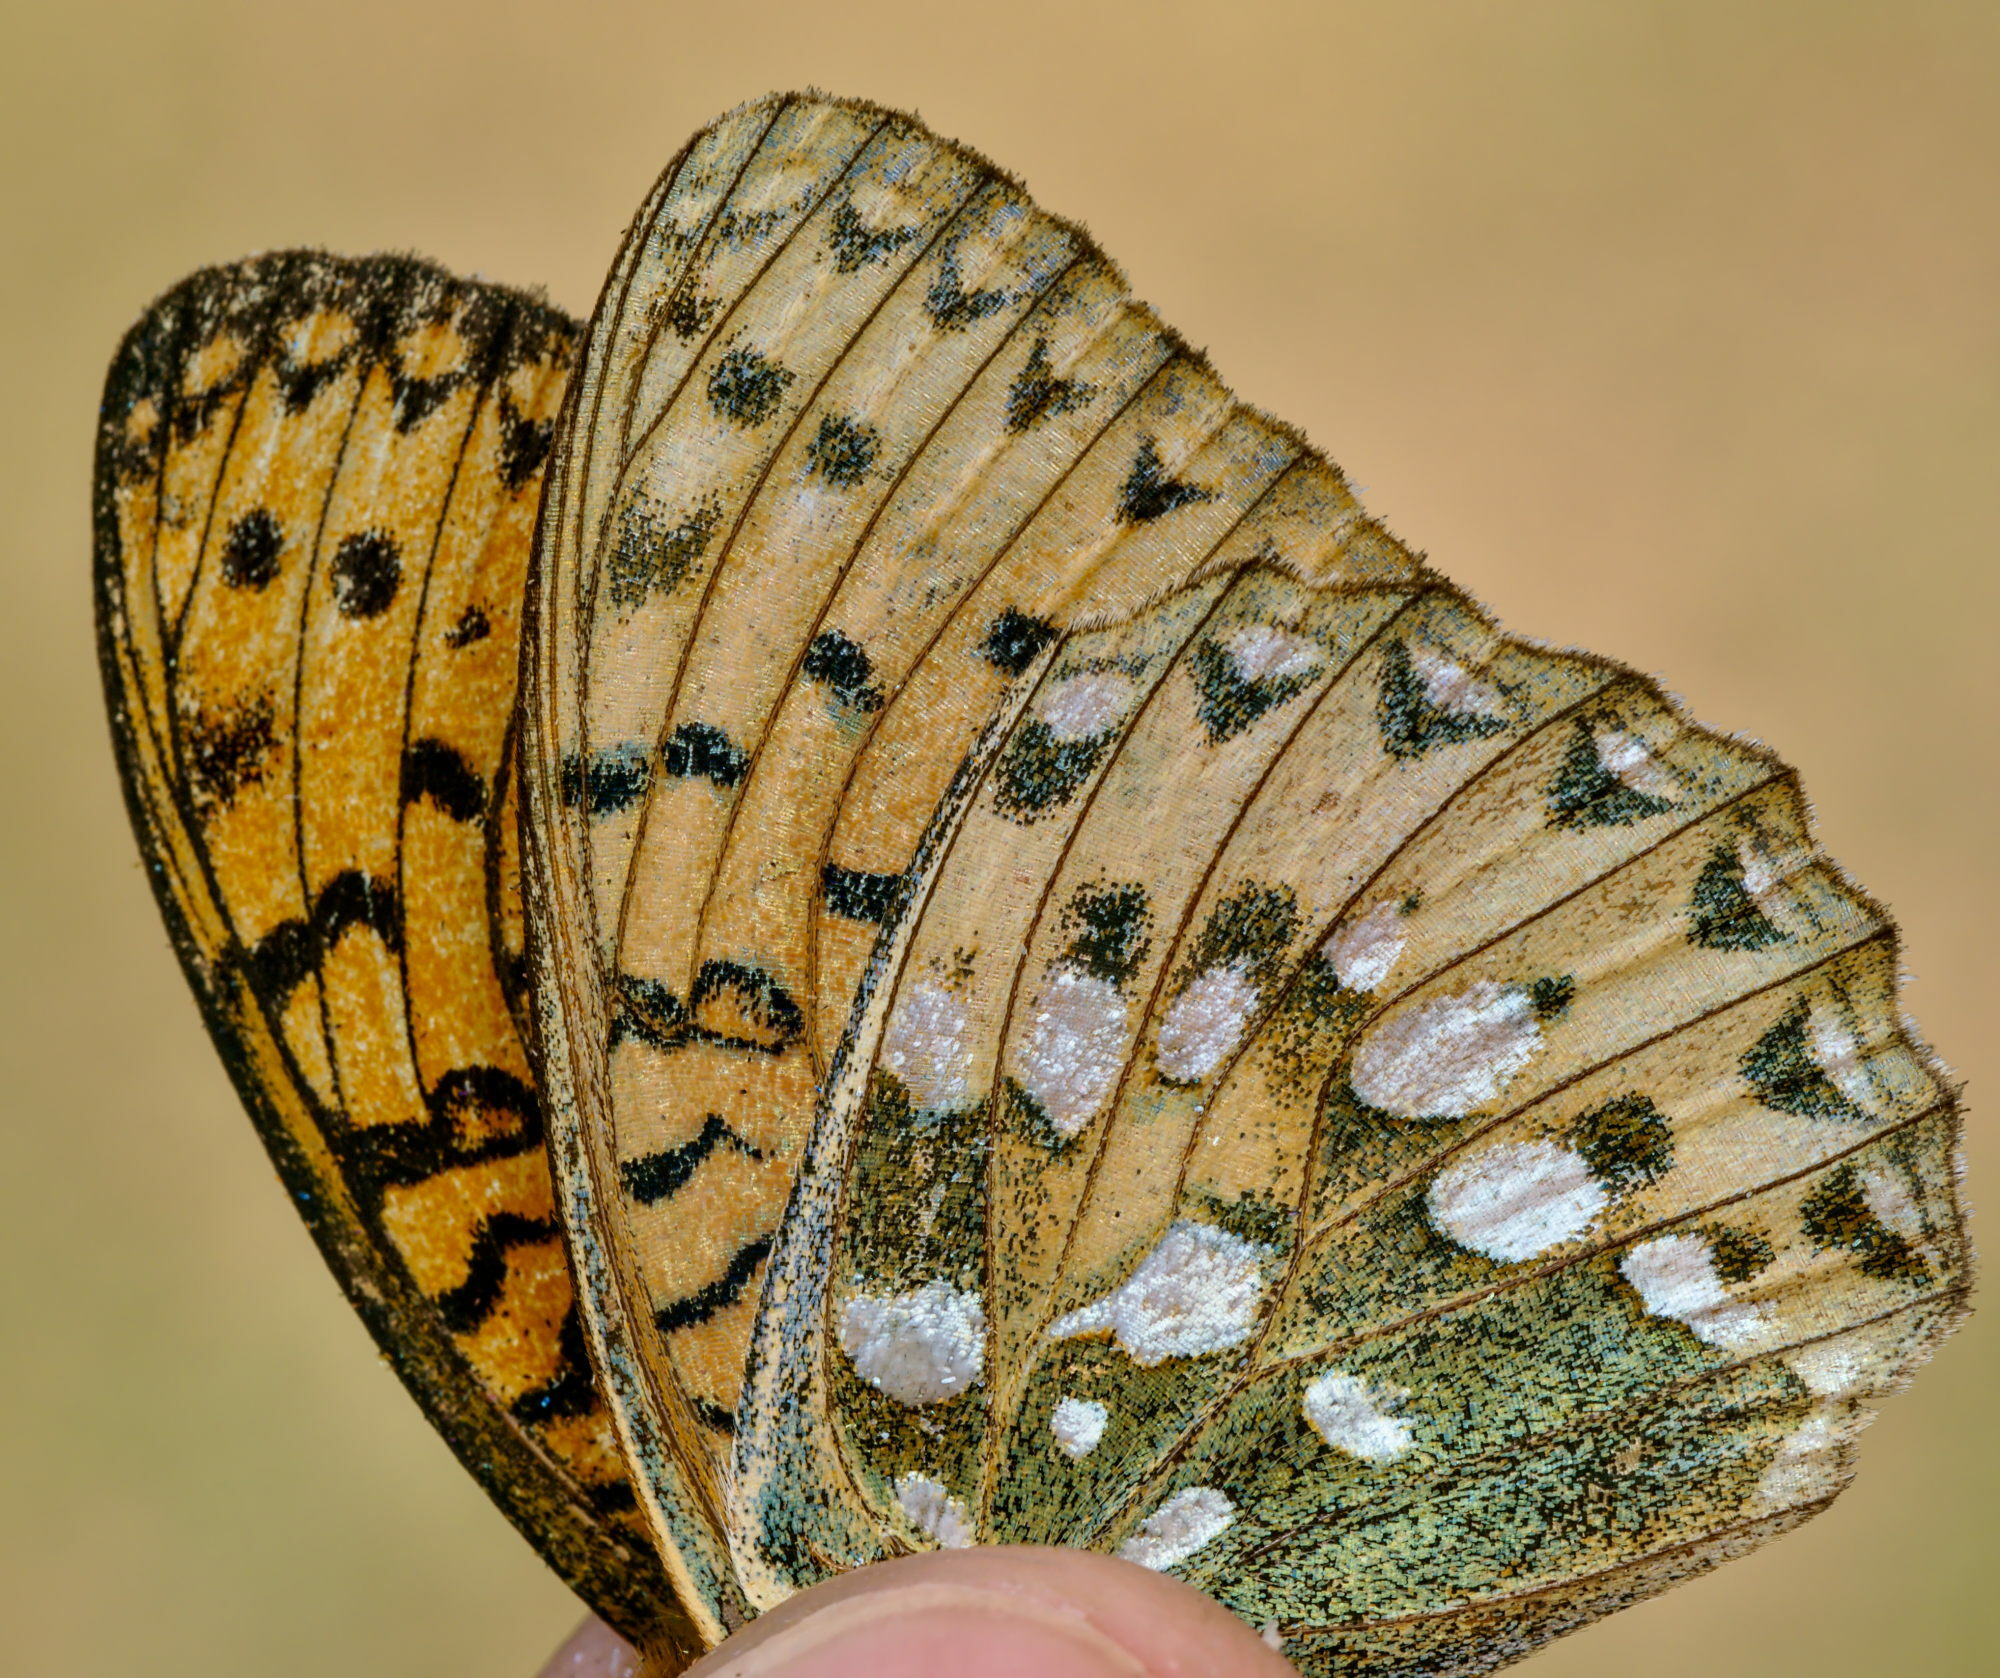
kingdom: Animalia
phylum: Arthropoda
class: Insecta
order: Lepidoptera
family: Nymphalidae
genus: Speyeria
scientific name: Speyeria aglaja
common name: Dark green fritillary
